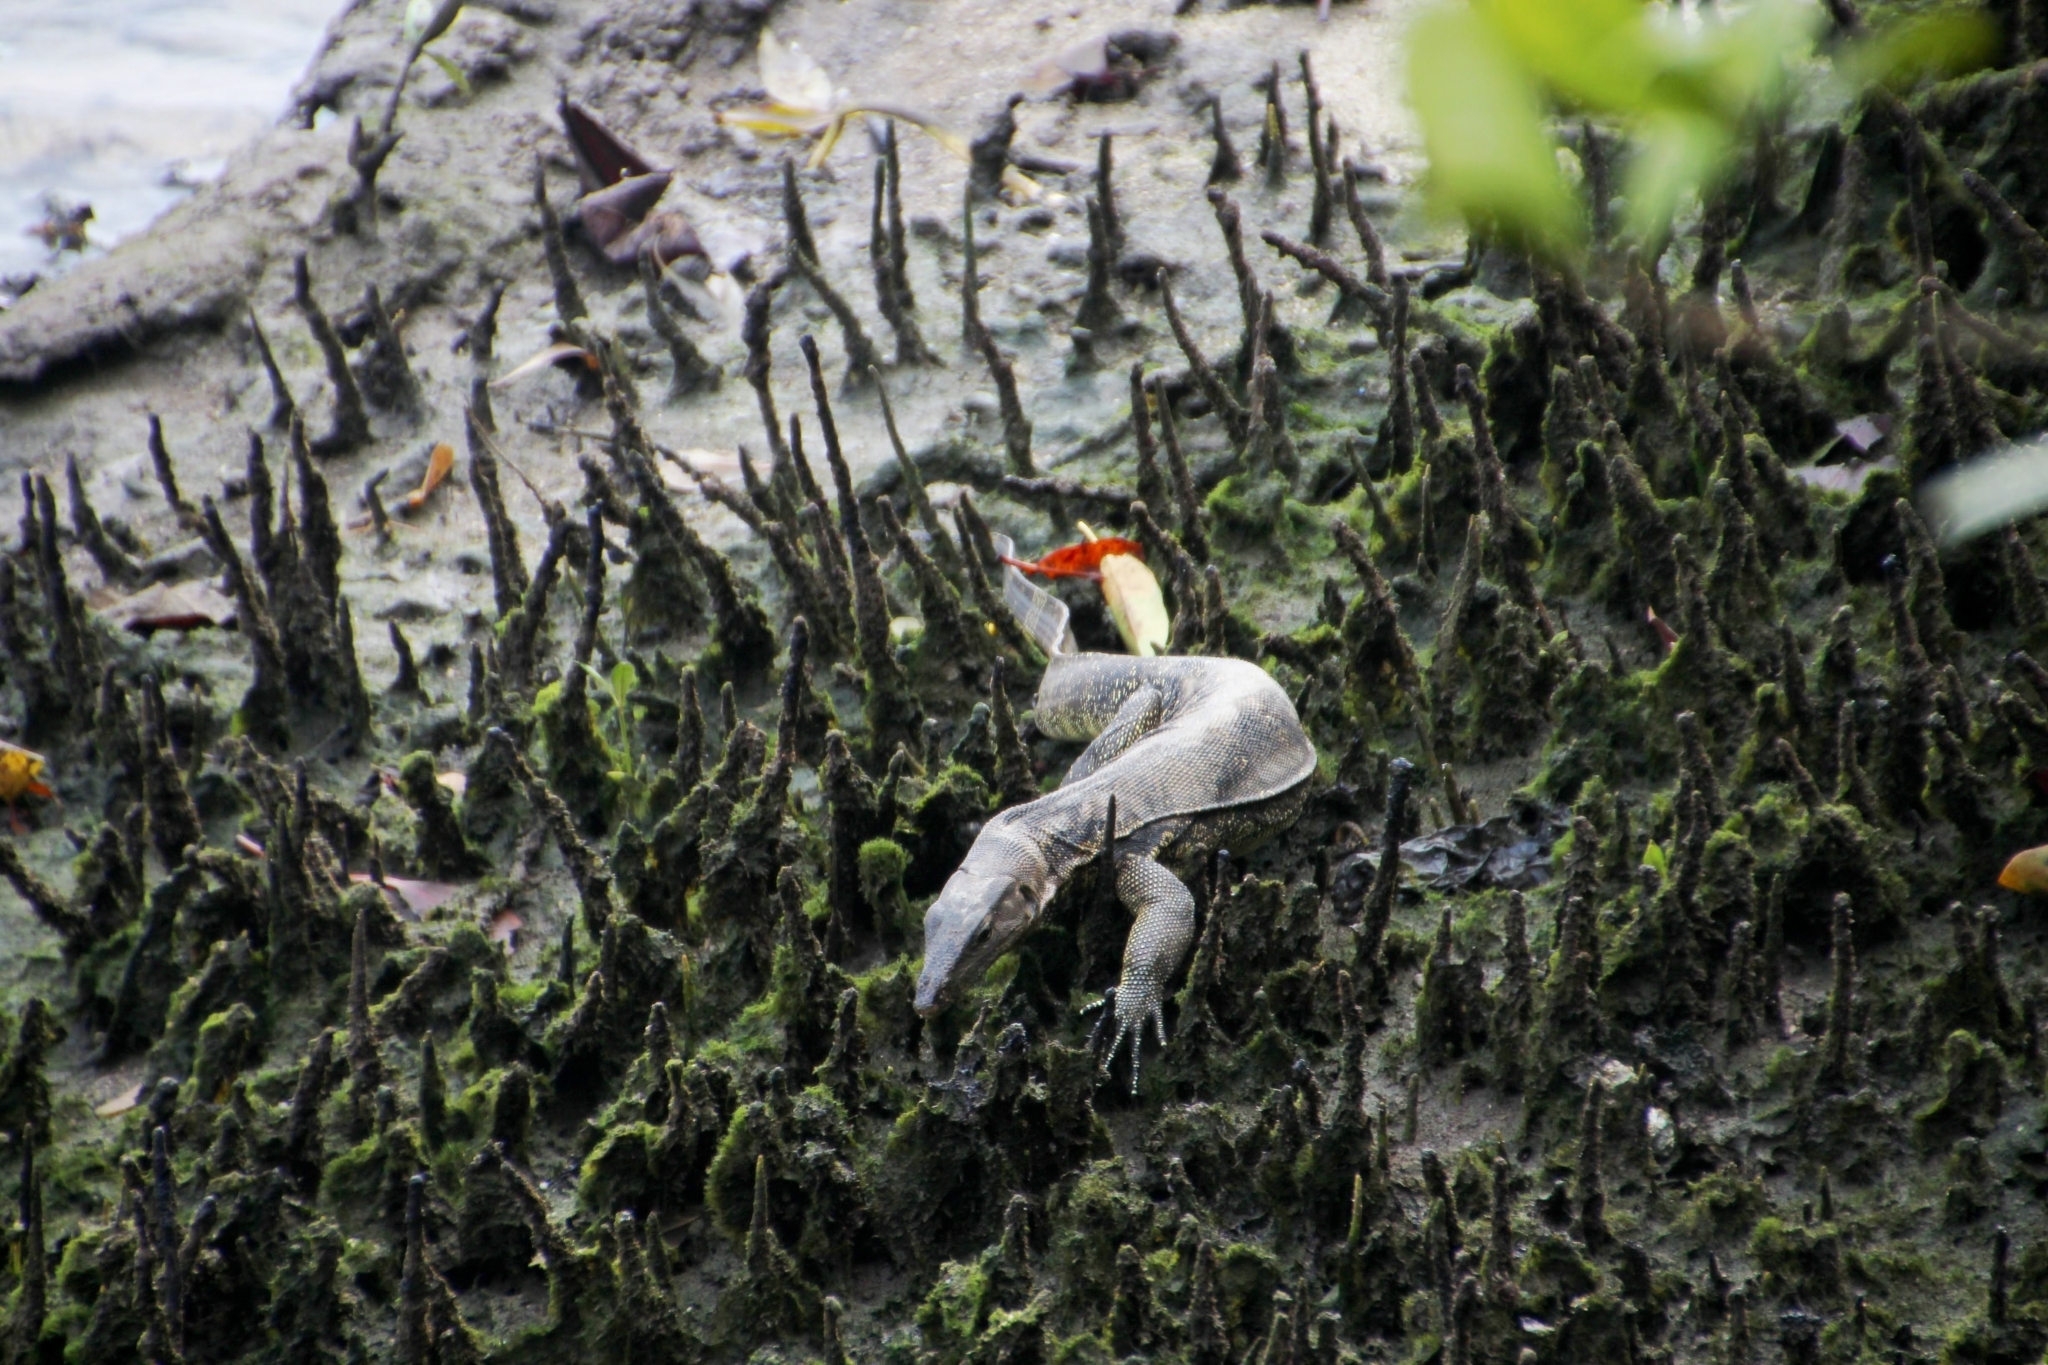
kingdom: Animalia
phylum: Chordata
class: Squamata
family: Varanidae
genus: Varanus
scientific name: Varanus salvator
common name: Common water monitor
